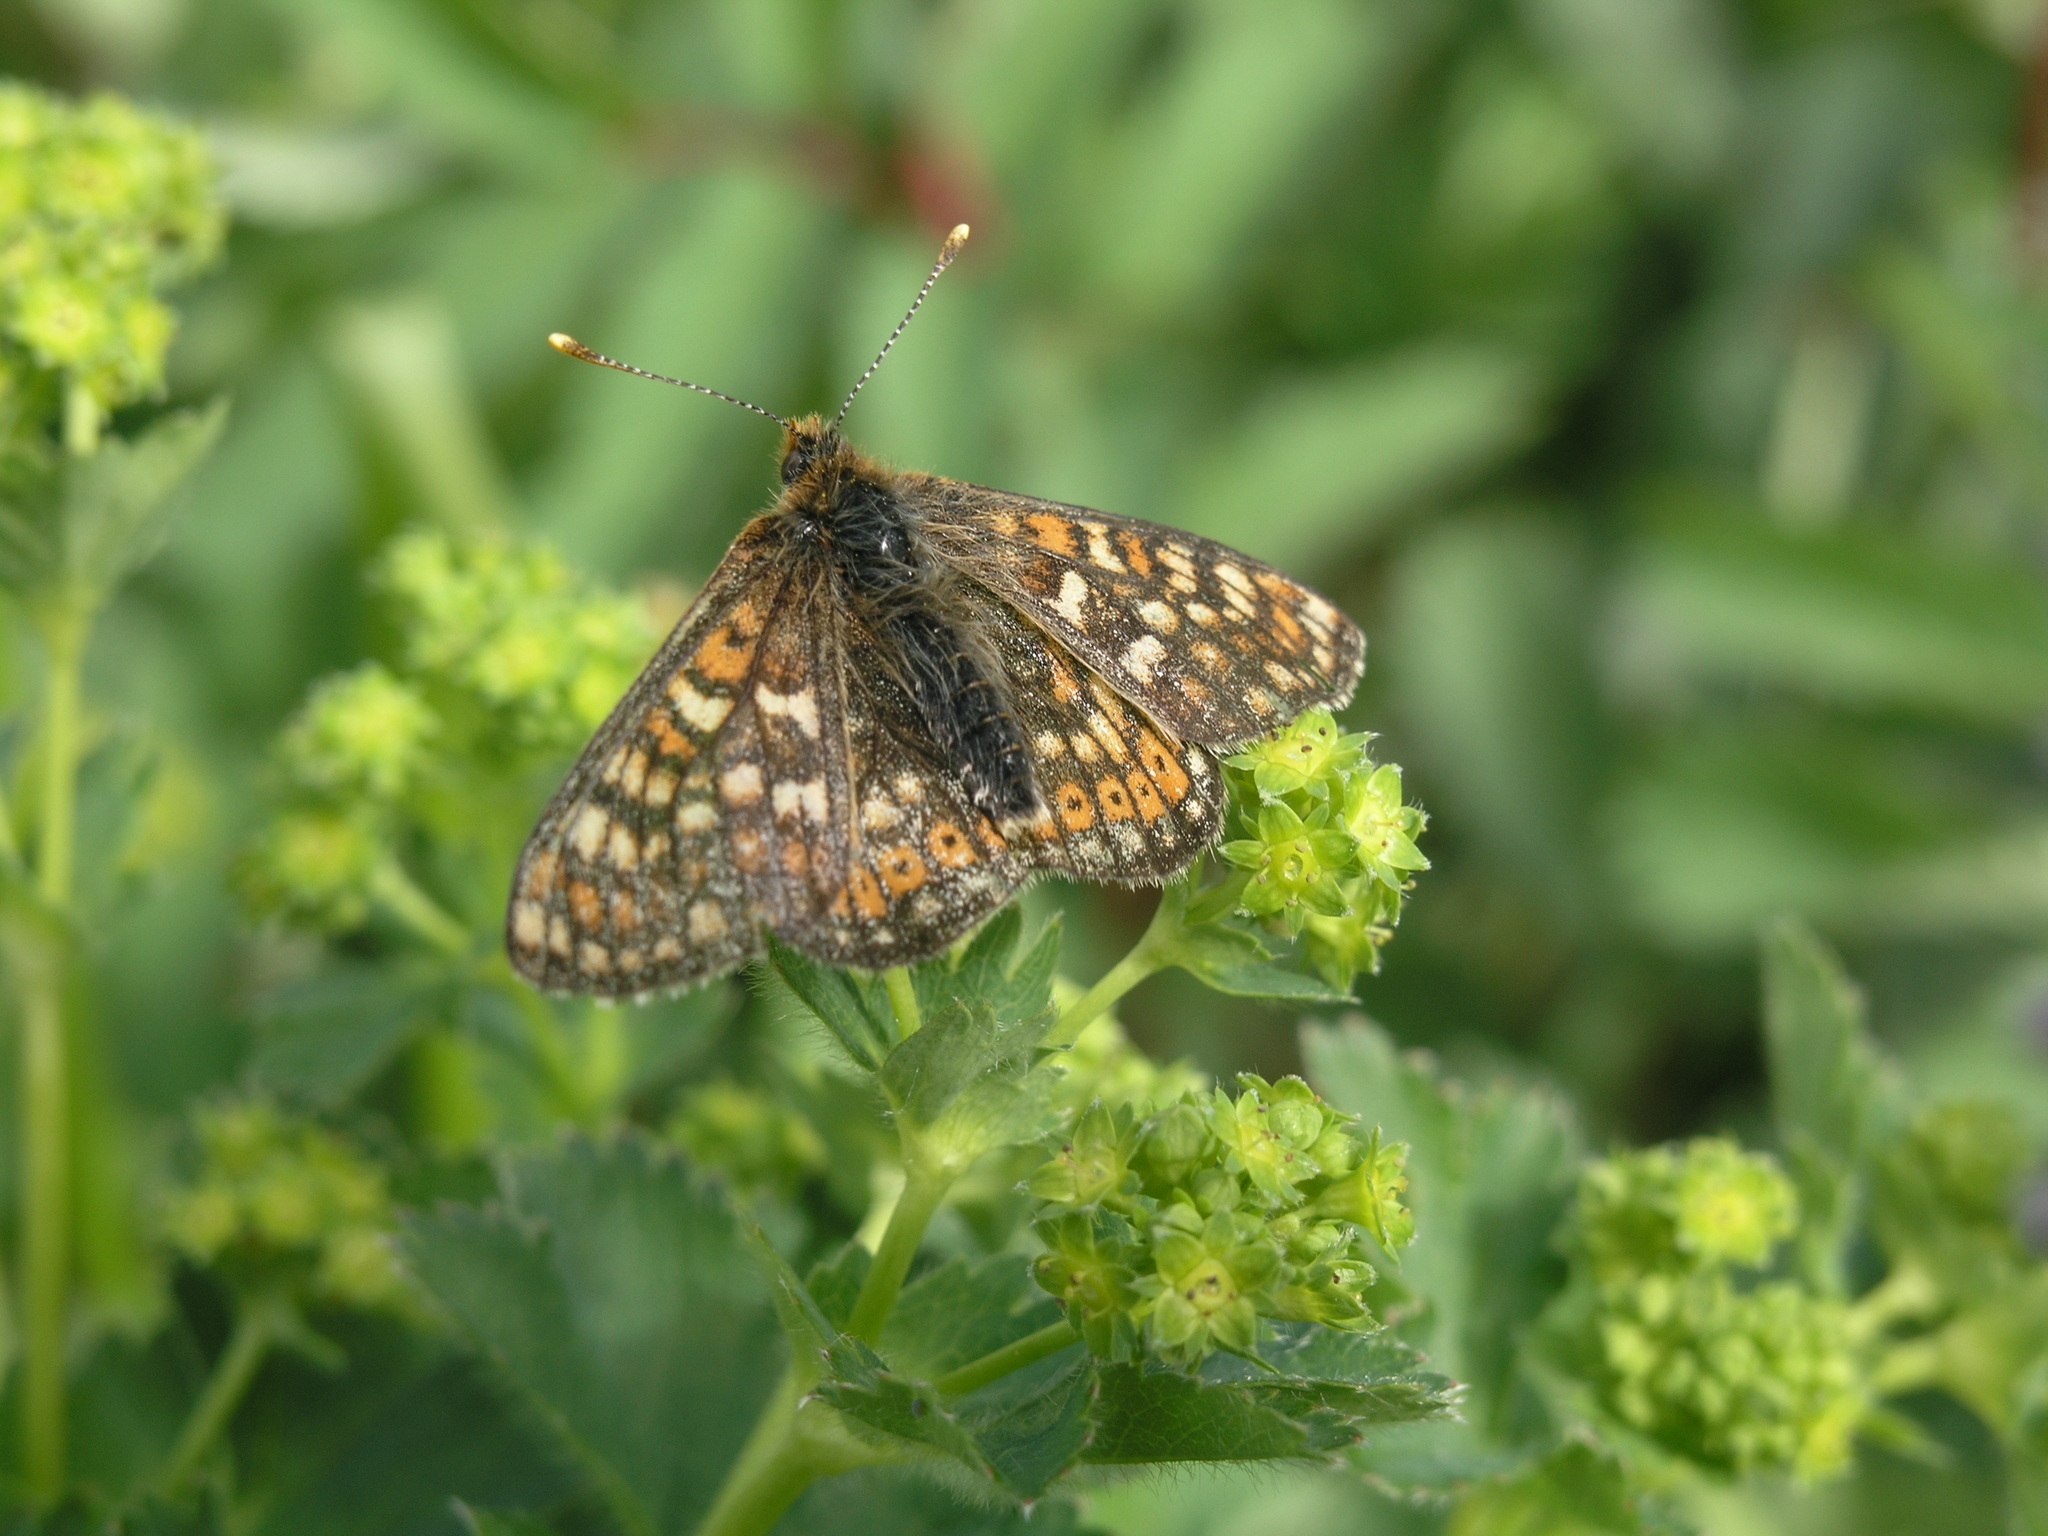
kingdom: Animalia
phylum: Arthropoda
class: Insecta
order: Lepidoptera
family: Nymphalidae
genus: Euphydryas
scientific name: Euphydryas aurinia
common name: Marsh fritillary
